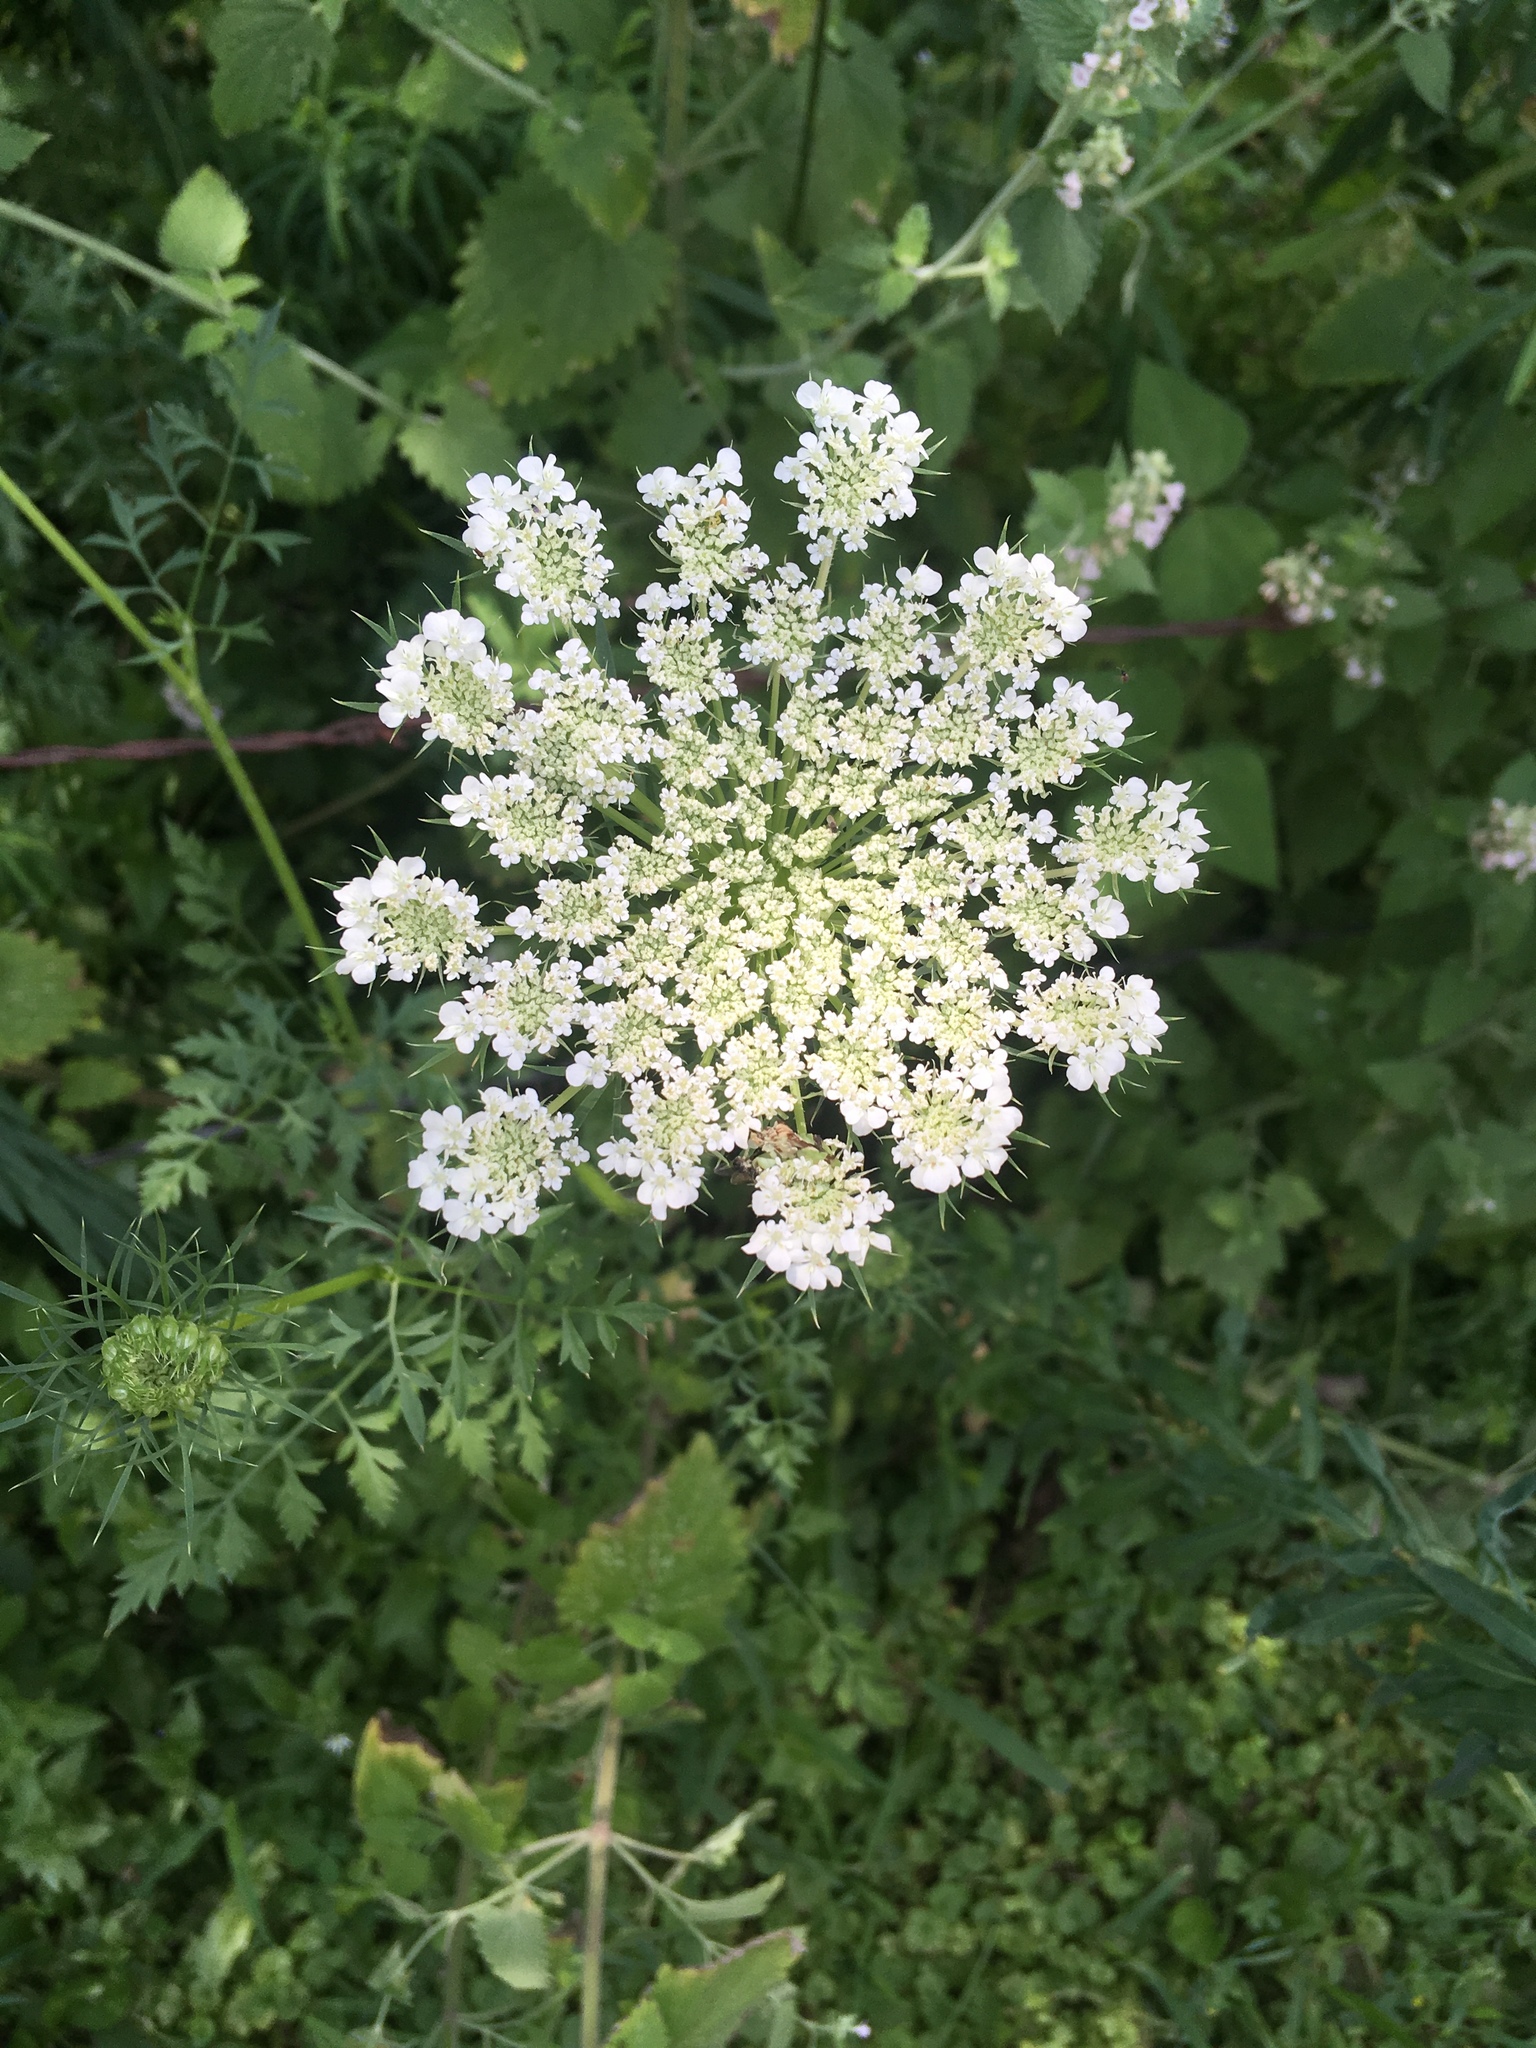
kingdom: Plantae
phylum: Tracheophyta
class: Magnoliopsida
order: Apiales
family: Apiaceae
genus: Daucus
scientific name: Daucus carota
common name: Wild carrot
